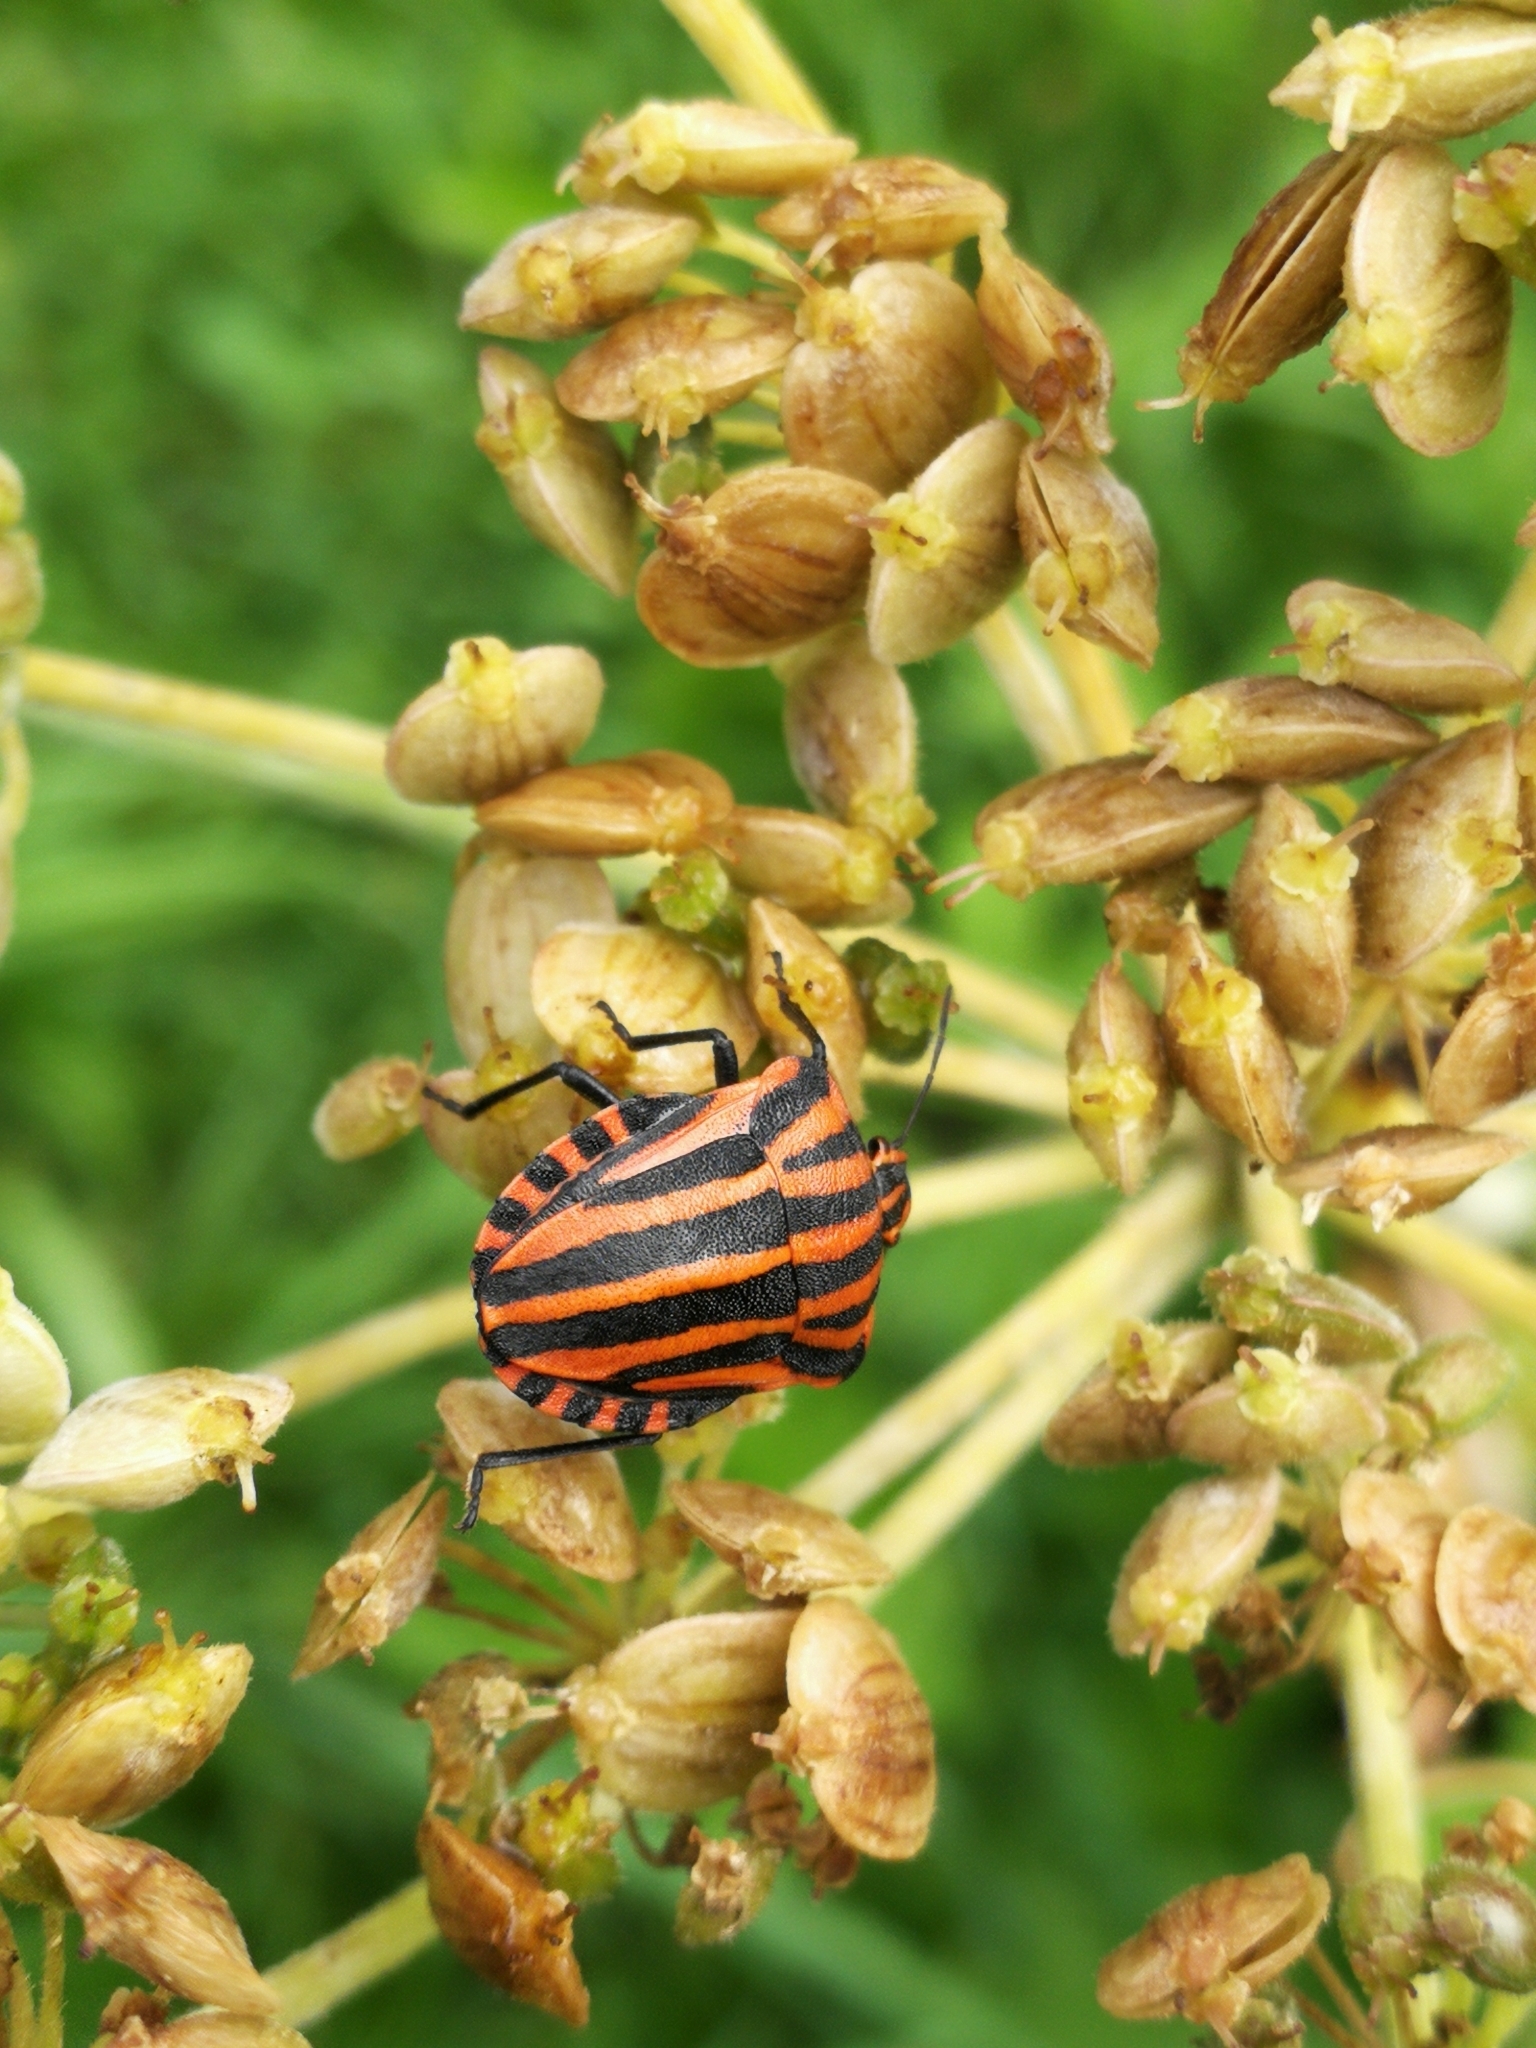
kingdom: Animalia
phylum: Arthropoda
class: Insecta
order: Hemiptera
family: Pentatomidae
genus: Graphosoma
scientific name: Graphosoma italicum
